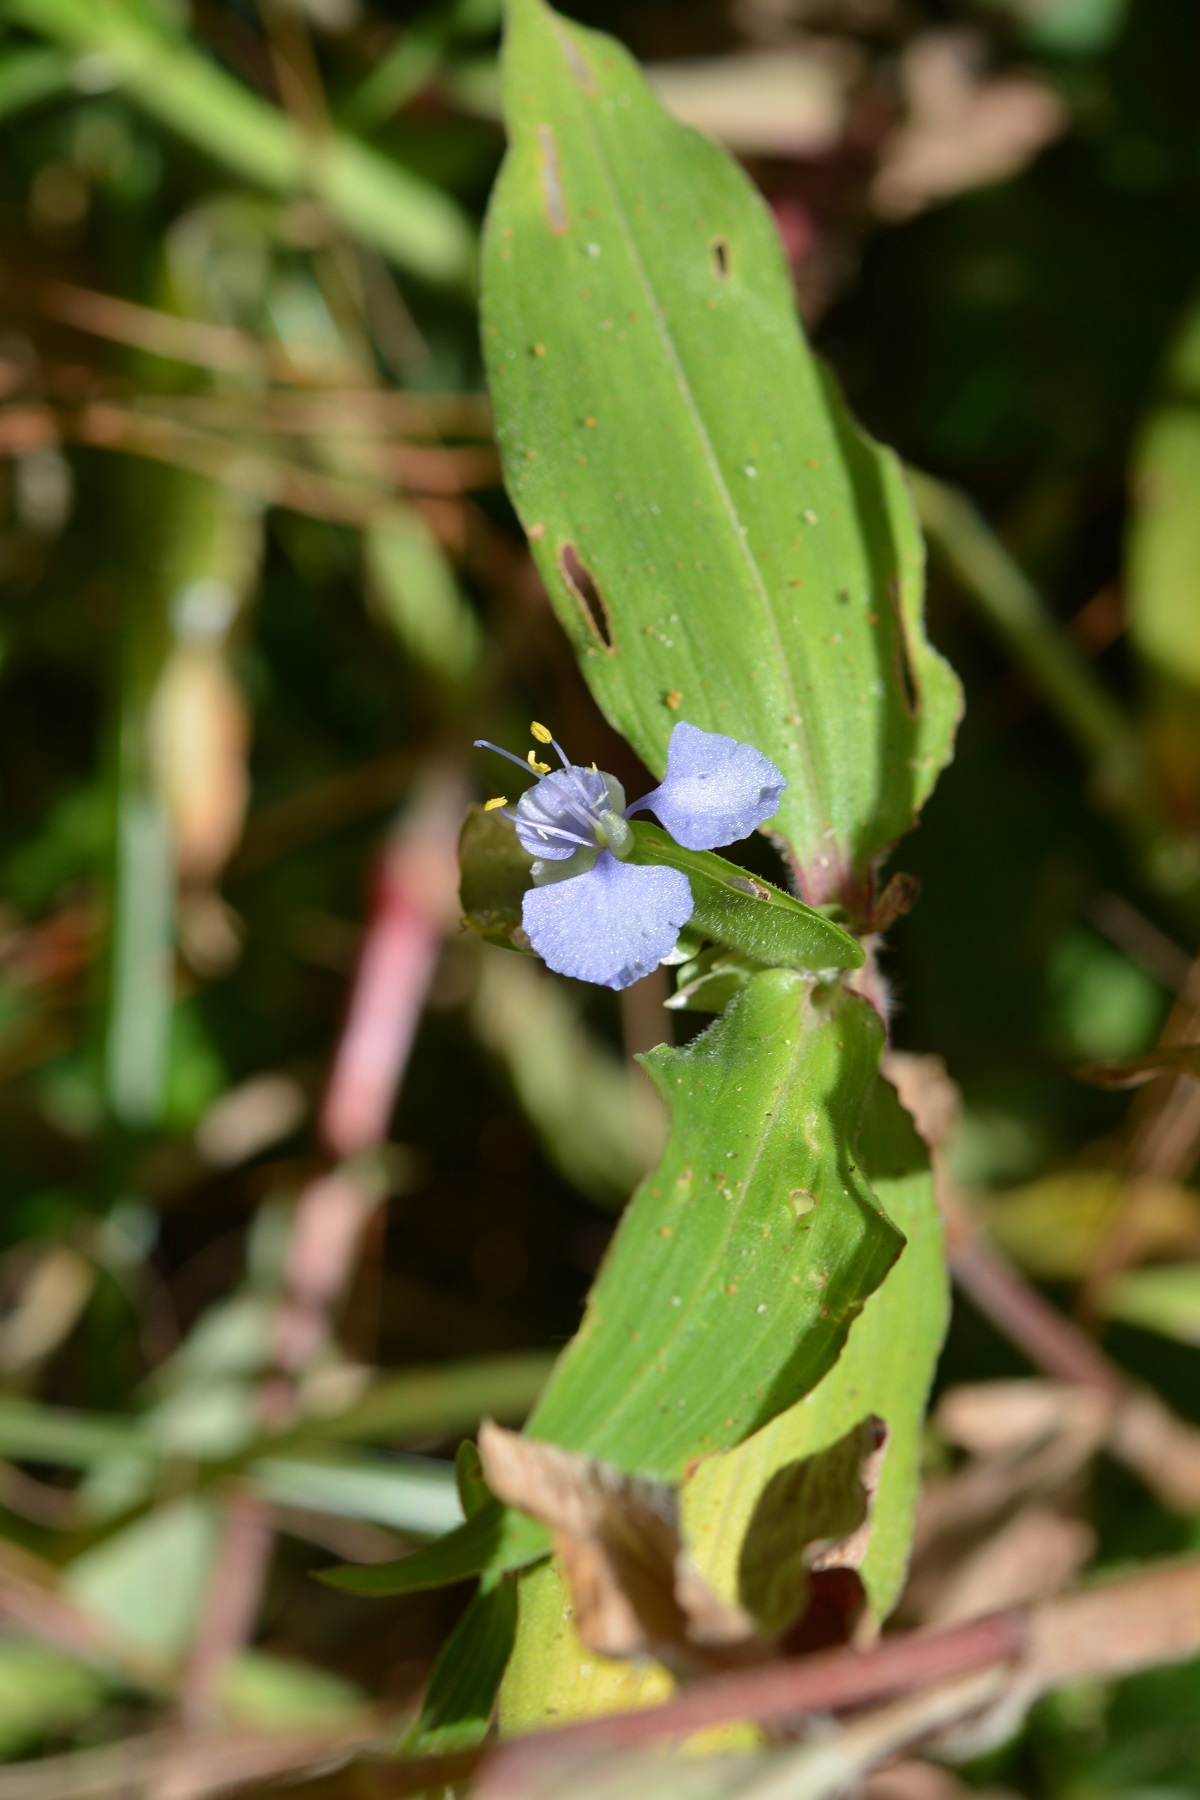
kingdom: Plantae
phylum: Tracheophyta
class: Liliopsida
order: Commelinales
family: Commelinaceae
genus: Commelina
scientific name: Commelina diffusa
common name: Climbing dayflower
